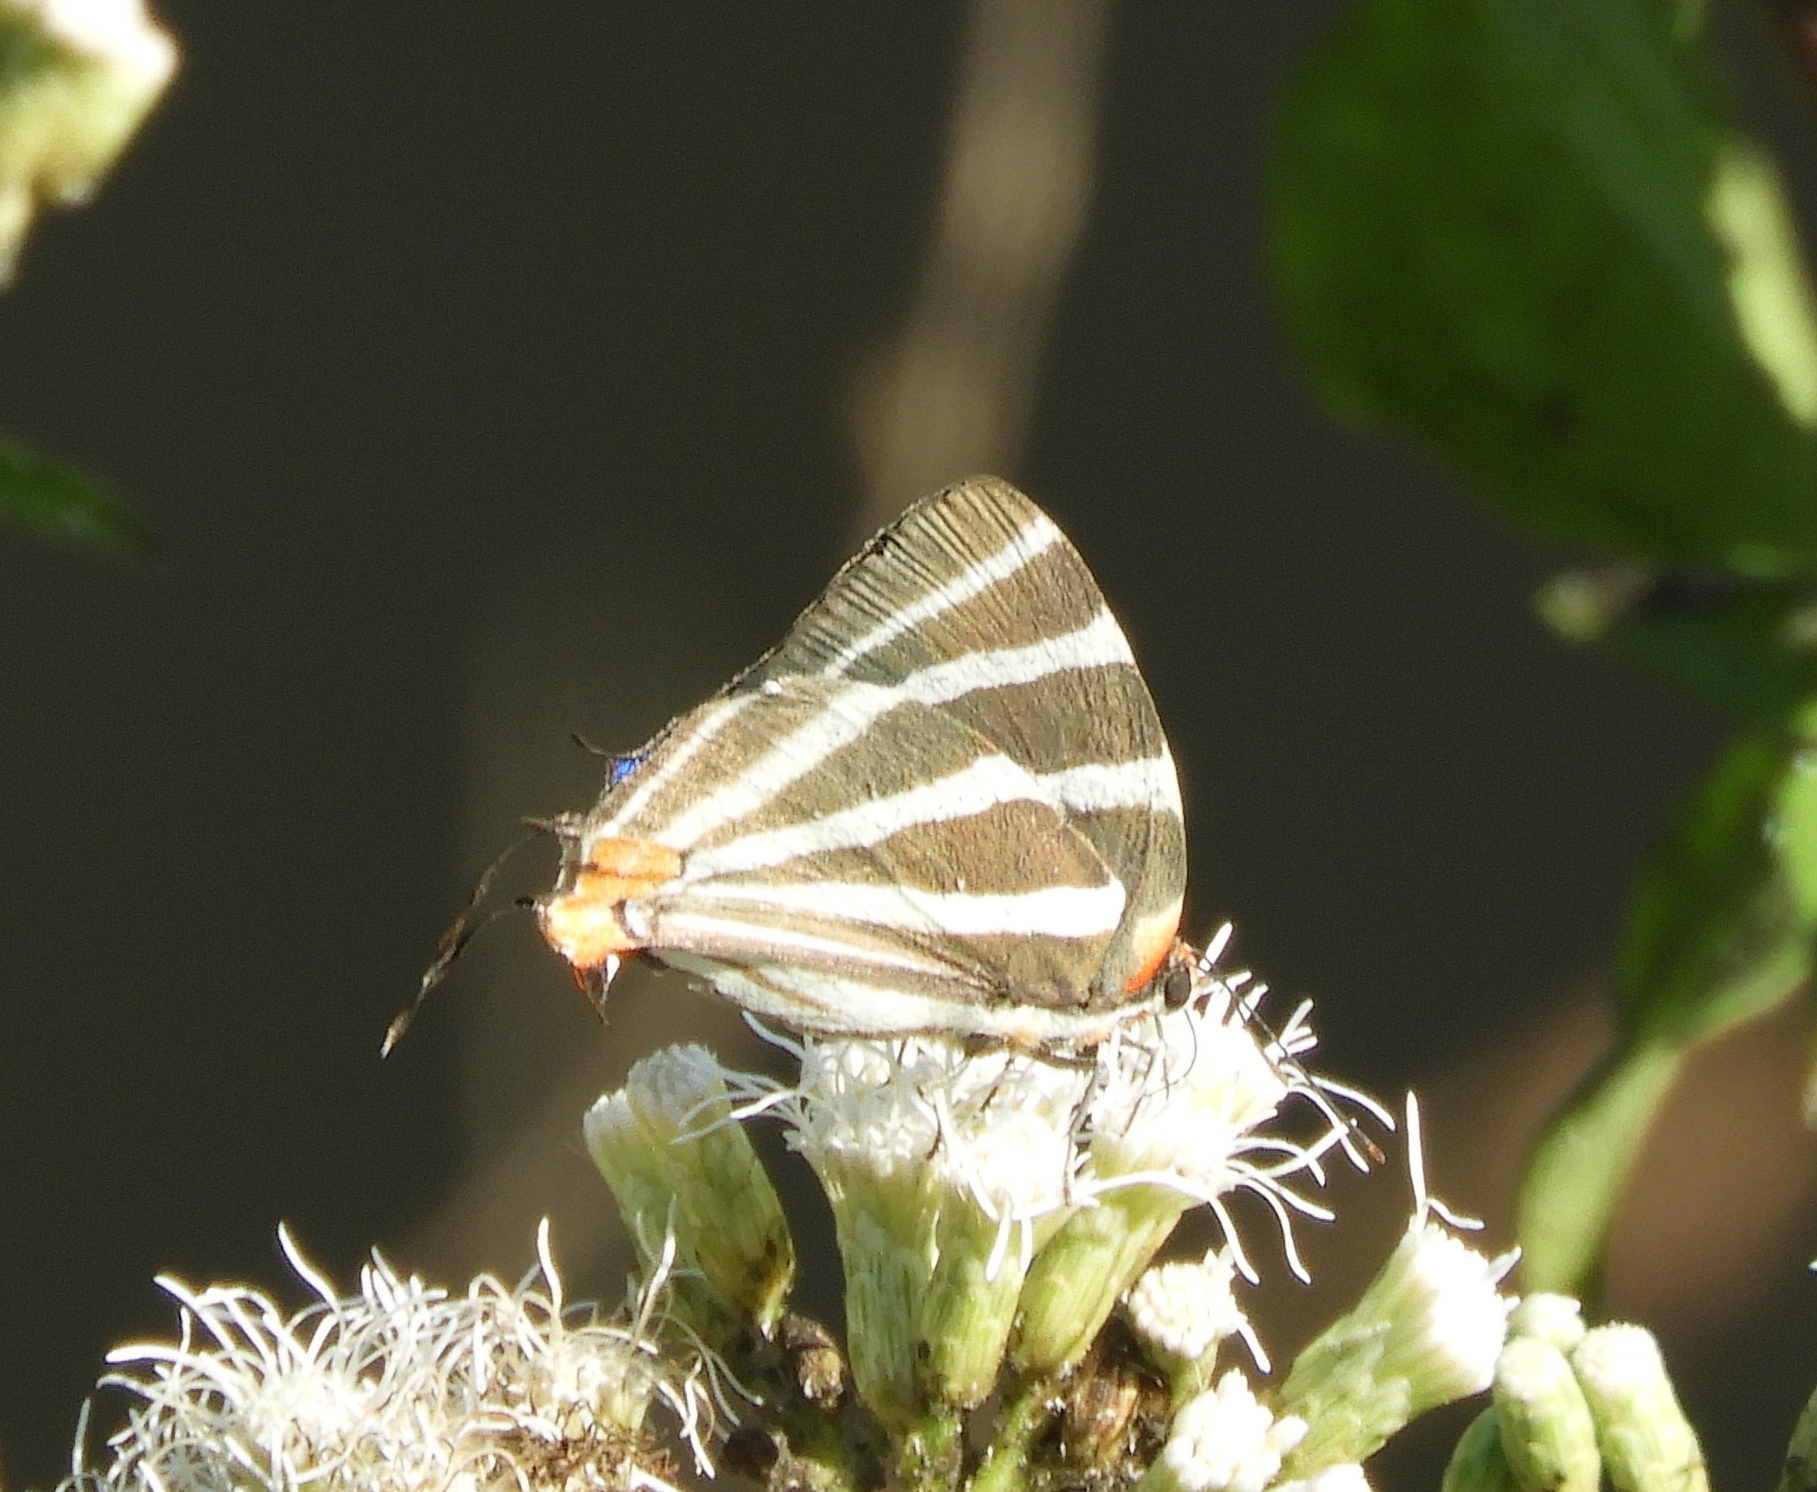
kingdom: Animalia
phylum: Arthropoda
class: Insecta
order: Lepidoptera
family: Lycaenidae
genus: Thecla
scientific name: Thecla bathildis
